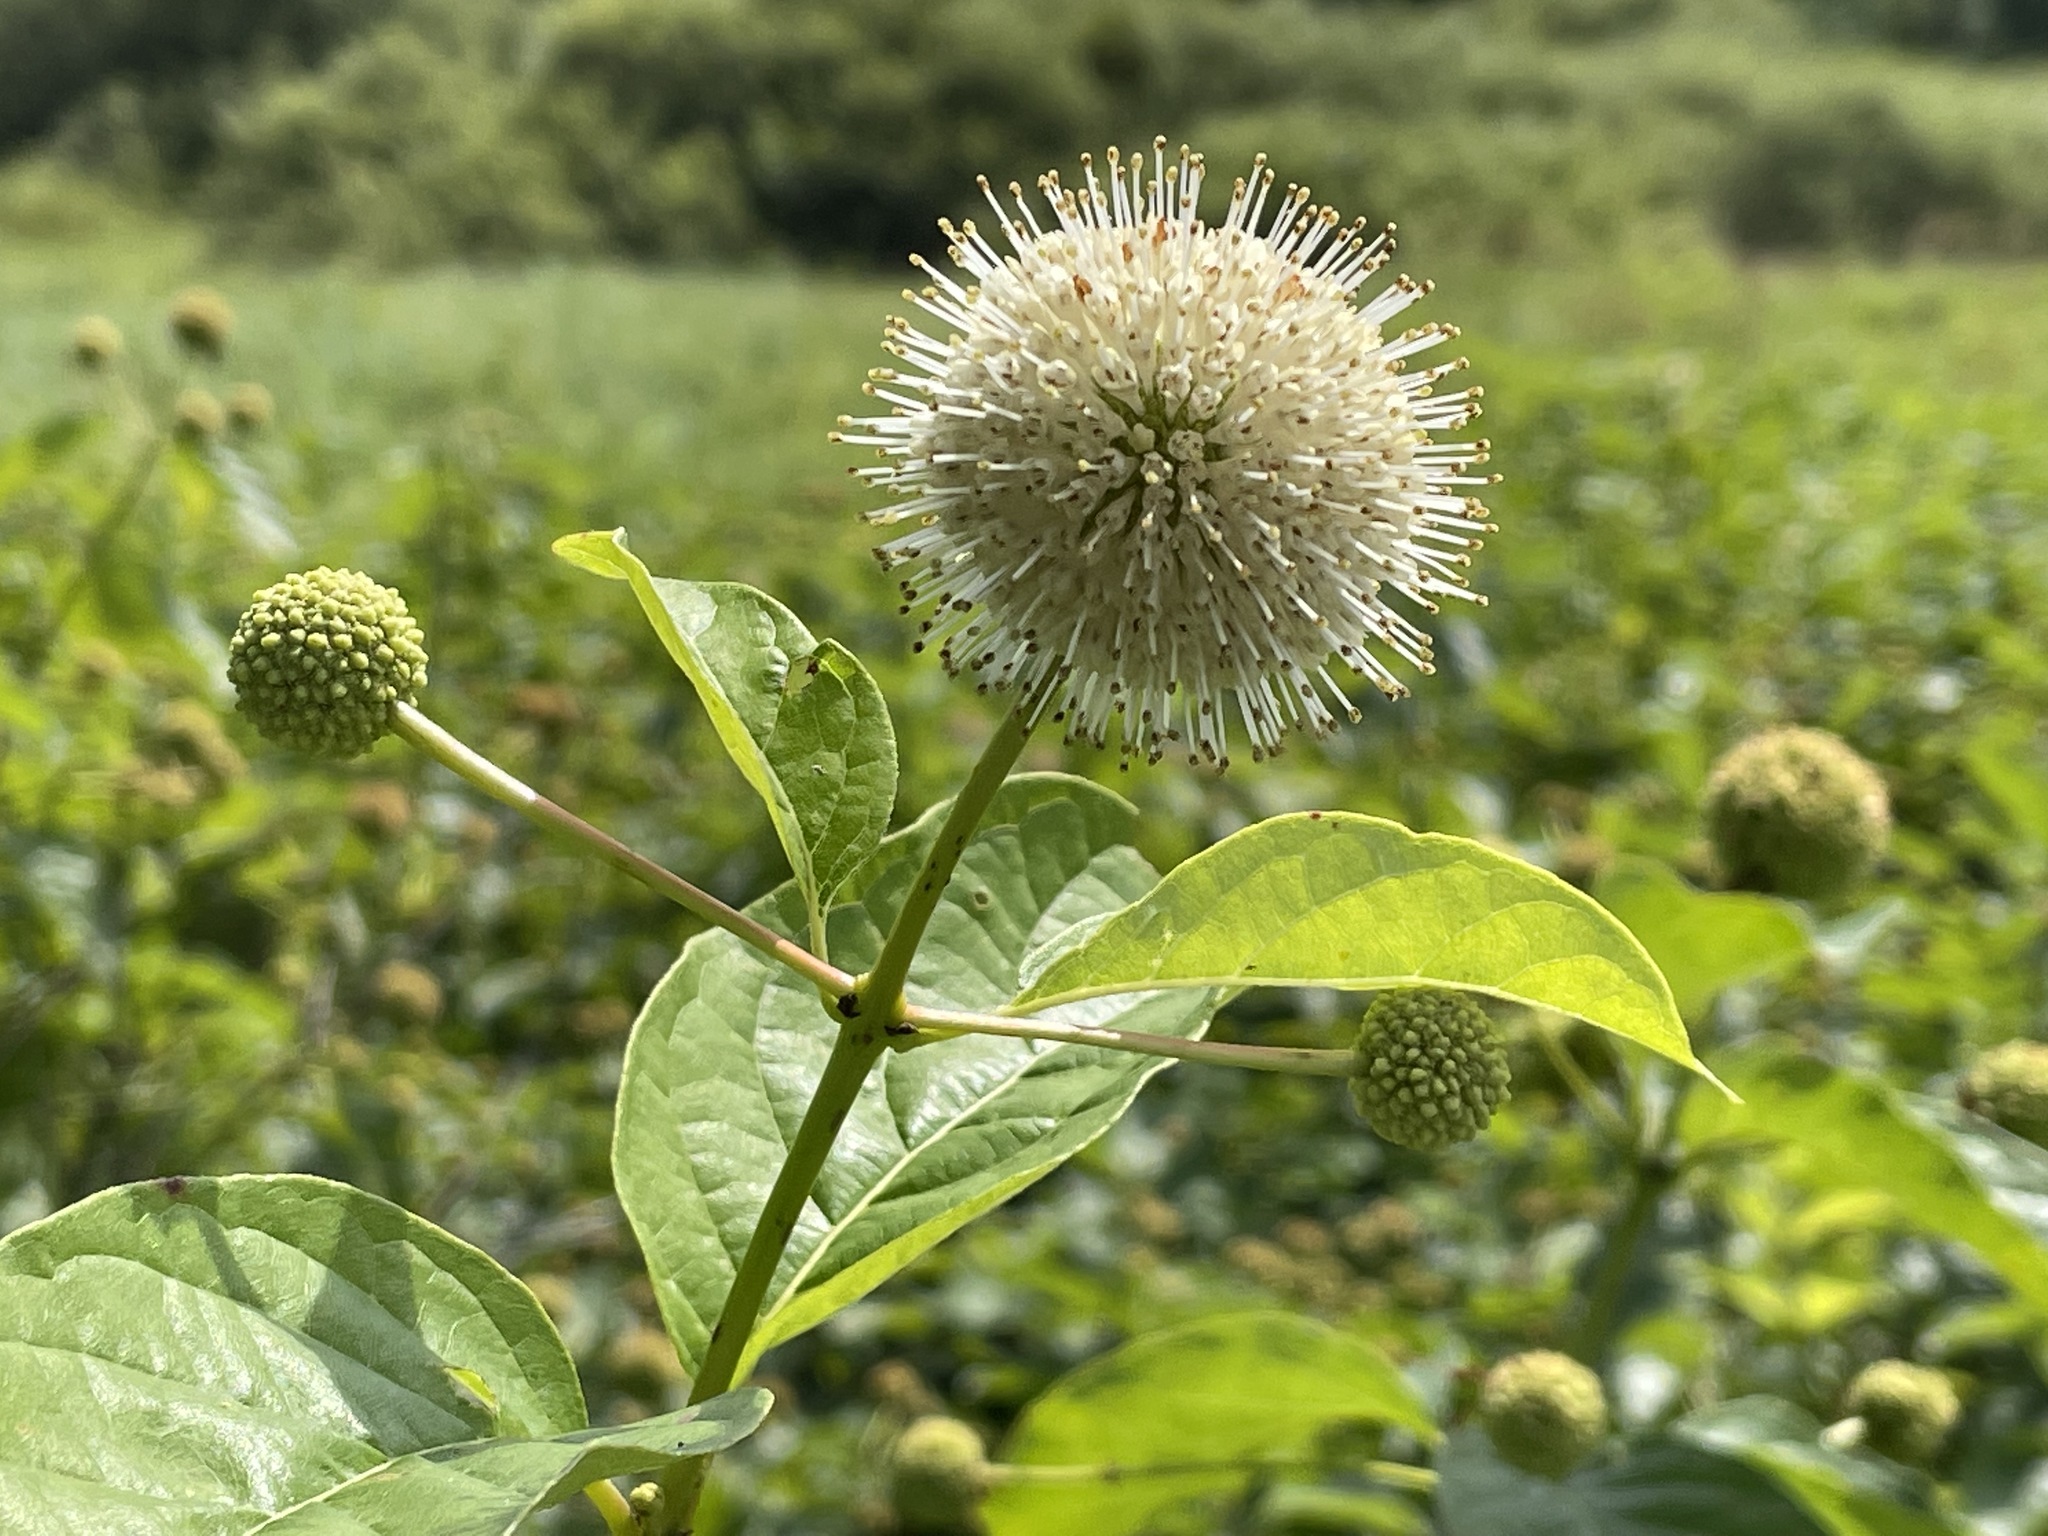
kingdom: Plantae
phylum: Tracheophyta
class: Magnoliopsida
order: Gentianales
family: Rubiaceae
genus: Cephalanthus
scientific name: Cephalanthus occidentalis
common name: Button-willow
